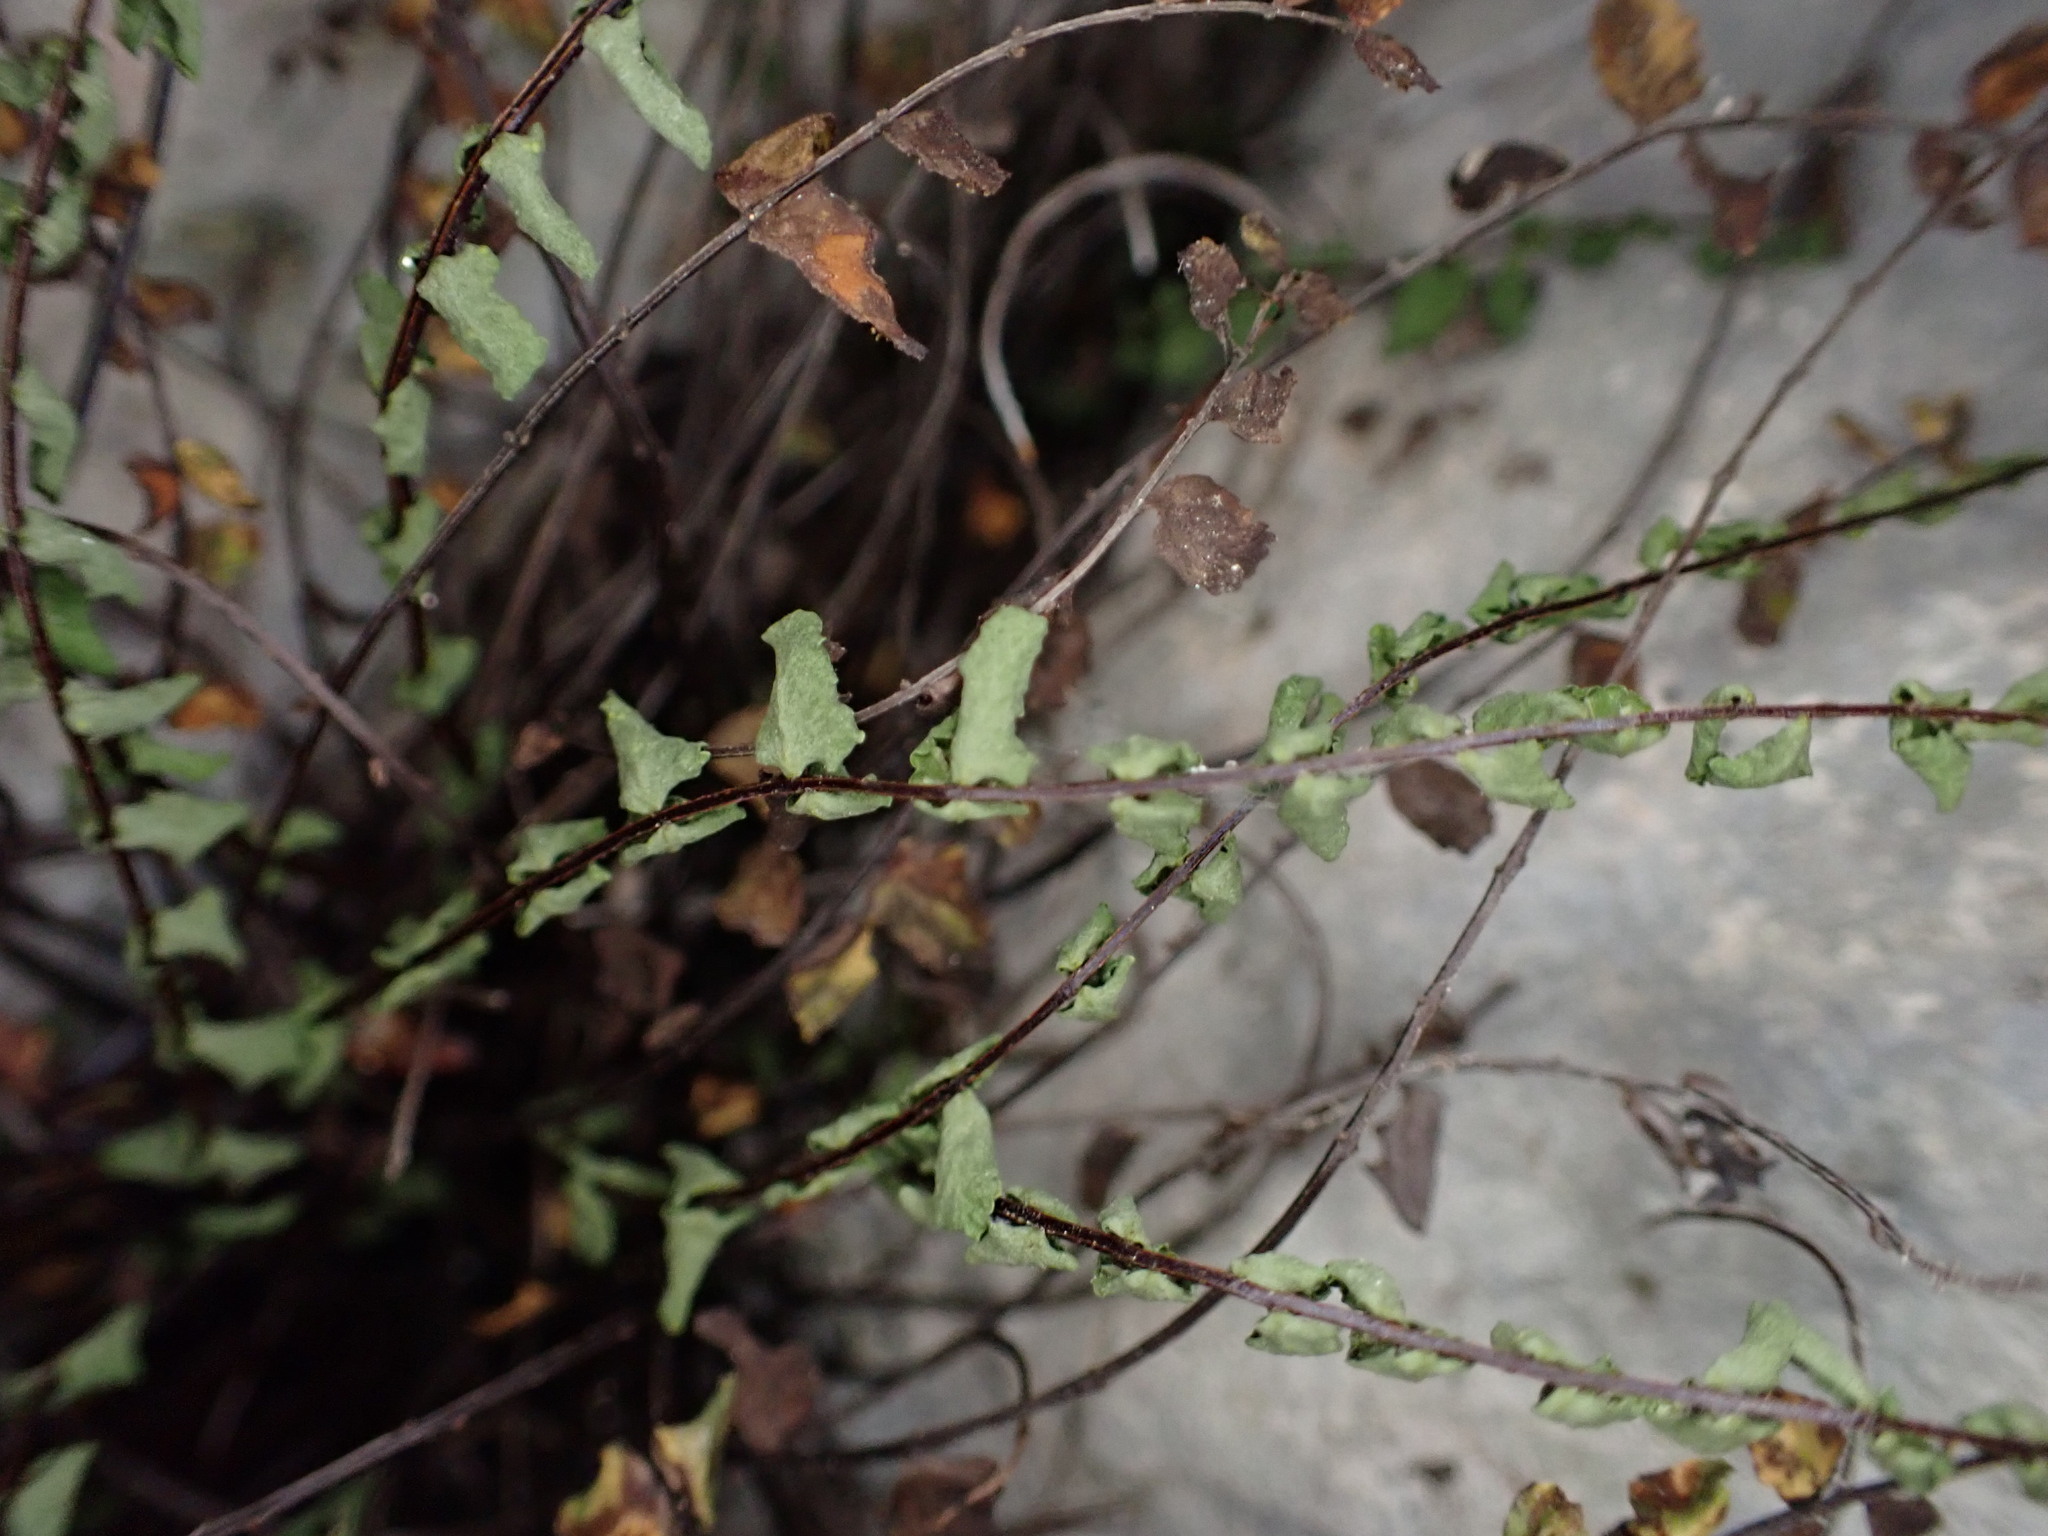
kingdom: Plantae
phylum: Tracheophyta
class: Polypodiopsida
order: Polypodiales
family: Aspleniaceae
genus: Asplenium
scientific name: Asplenium trichomanes
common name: Maidenhair spleenwort
